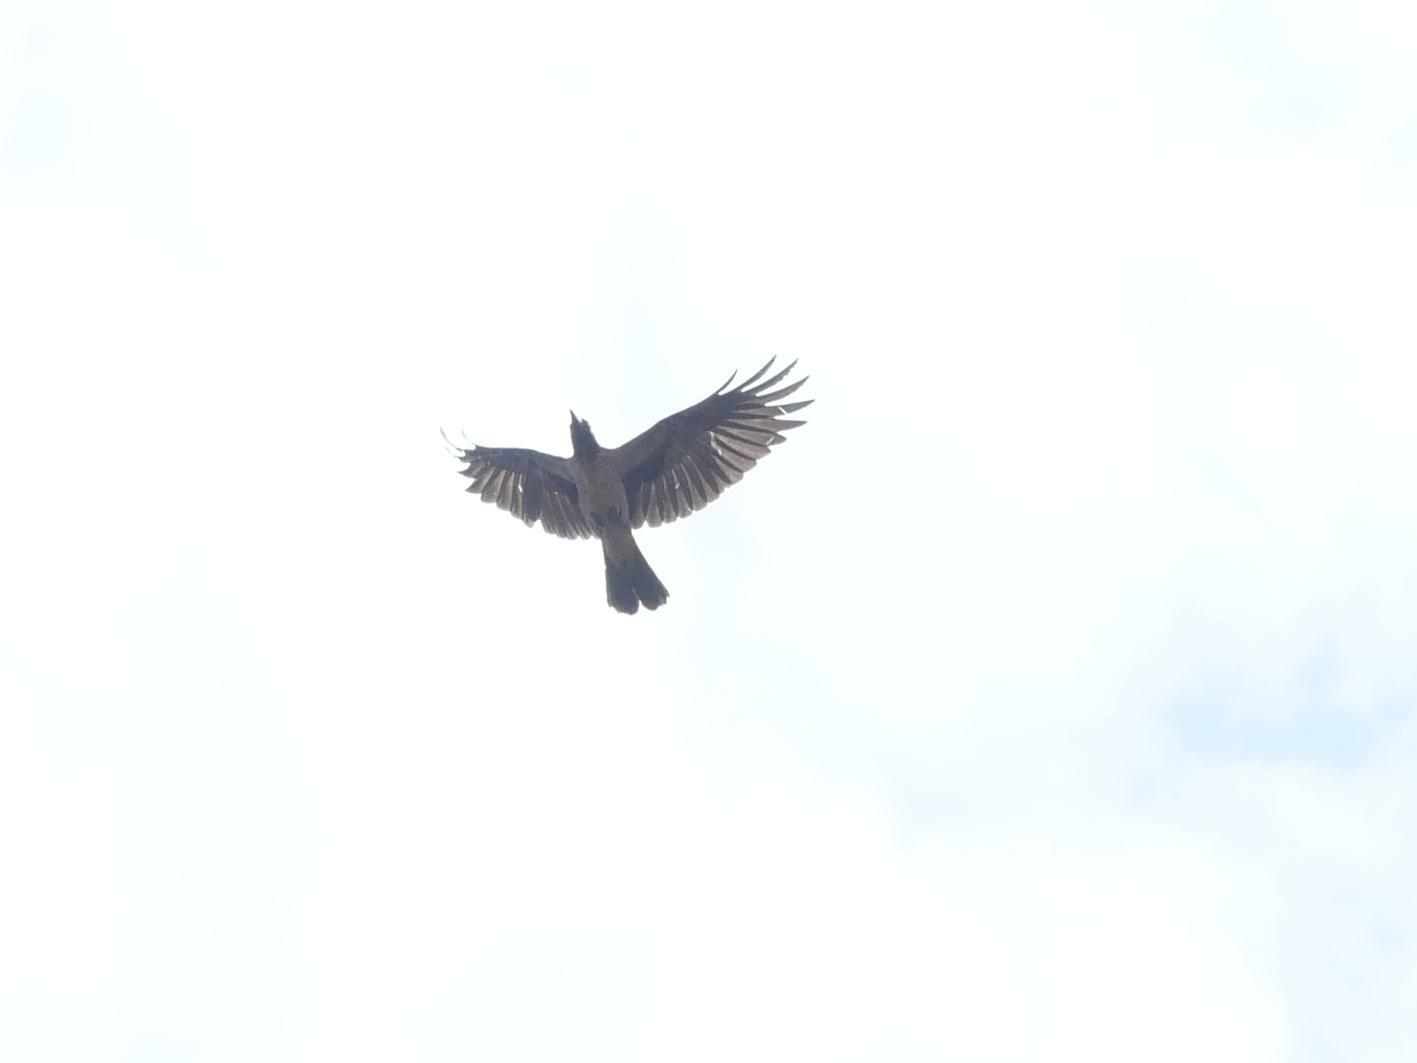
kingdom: Animalia
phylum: Chordata
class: Aves
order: Passeriformes
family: Corvidae
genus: Corvus
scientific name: Corvus cornix
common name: Hooded crow
